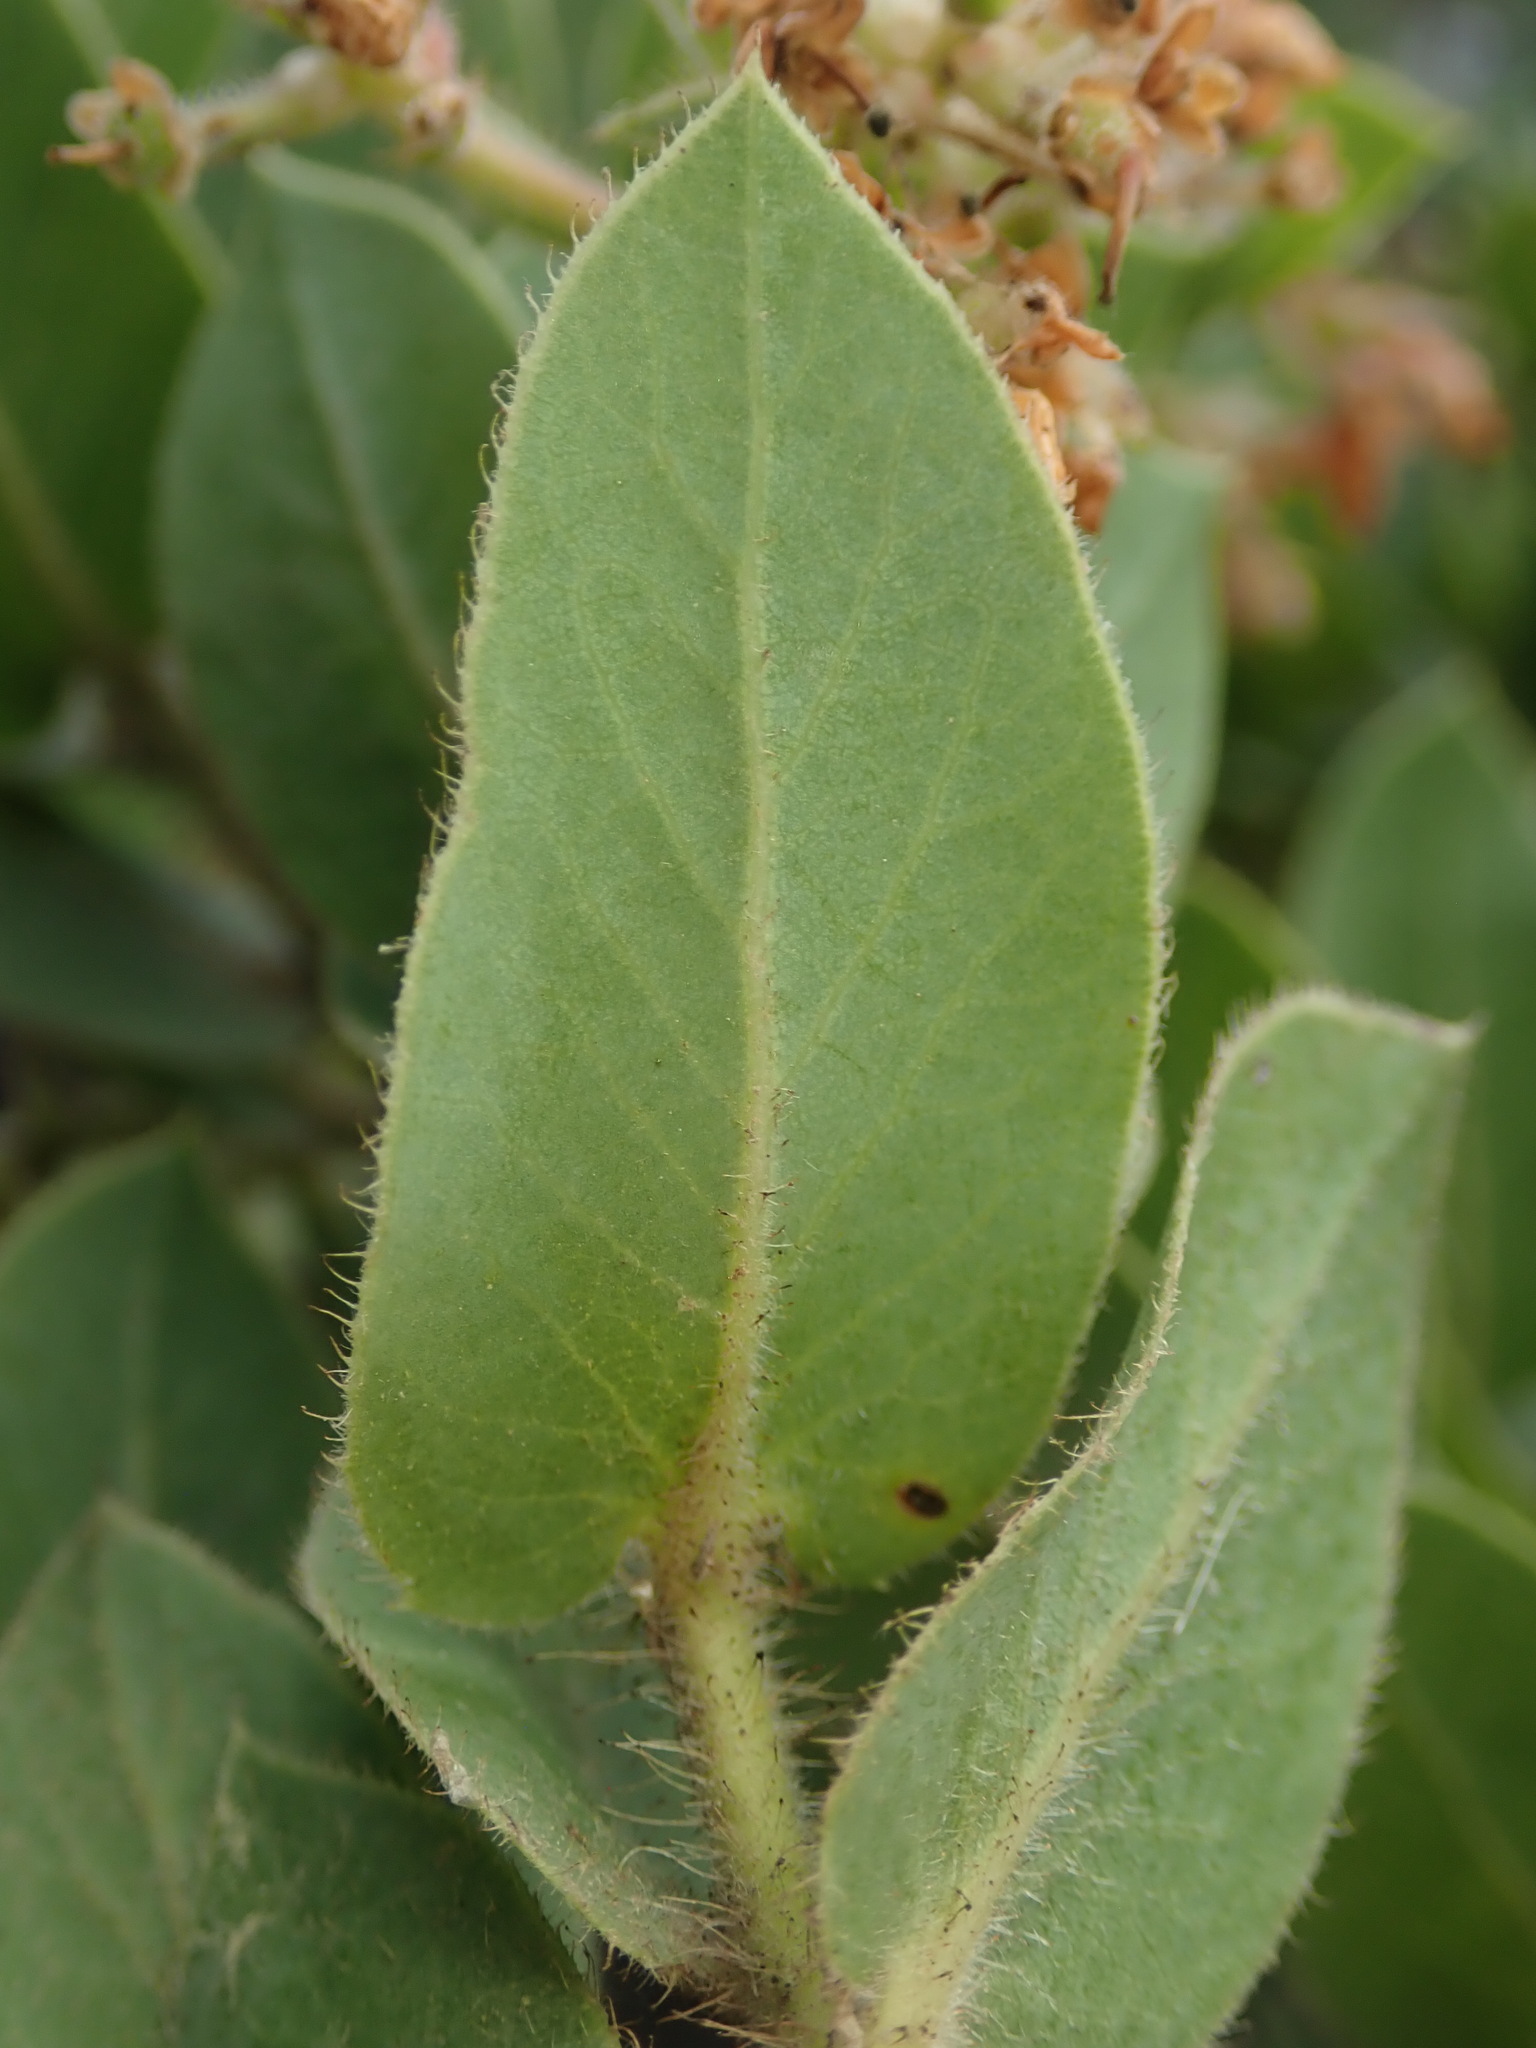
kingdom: Plantae
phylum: Tracheophyta
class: Magnoliopsida
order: Ericales
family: Ericaceae
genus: Arctostaphylos
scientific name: Arctostaphylos montaraensis
